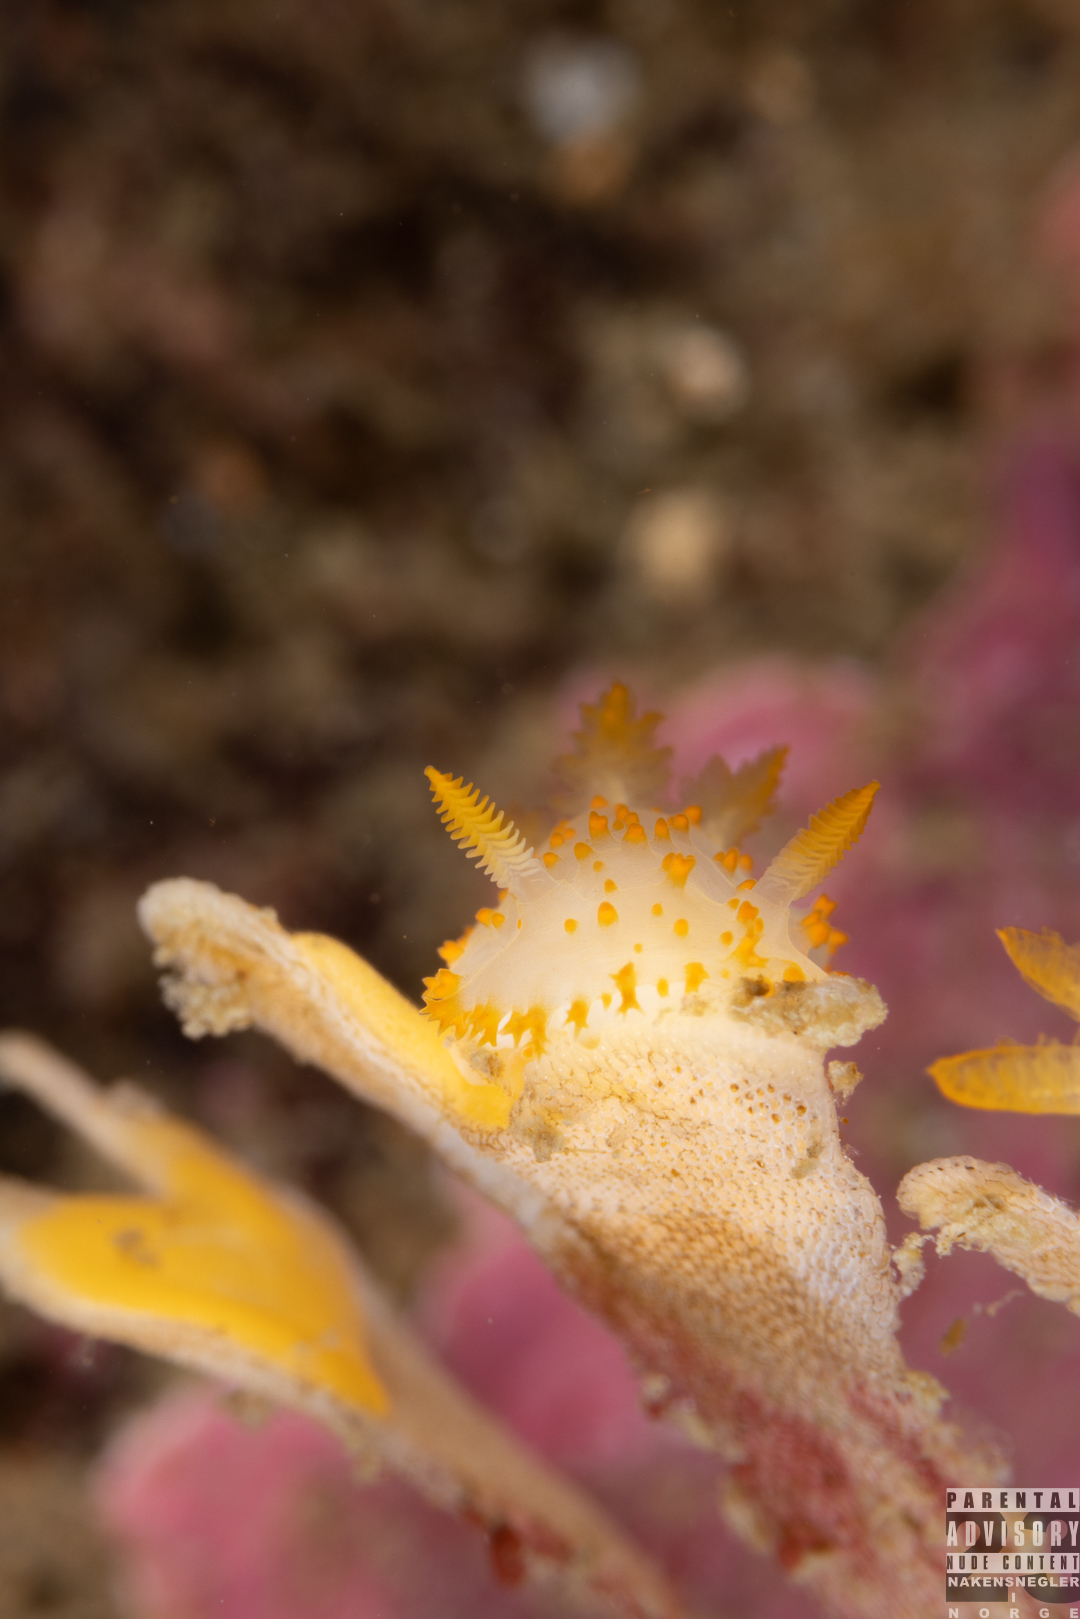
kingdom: Animalia
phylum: Mollusca
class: Gastropoda
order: Nudibranchia
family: Polyceridae
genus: Crimora
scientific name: Crimora papillata
